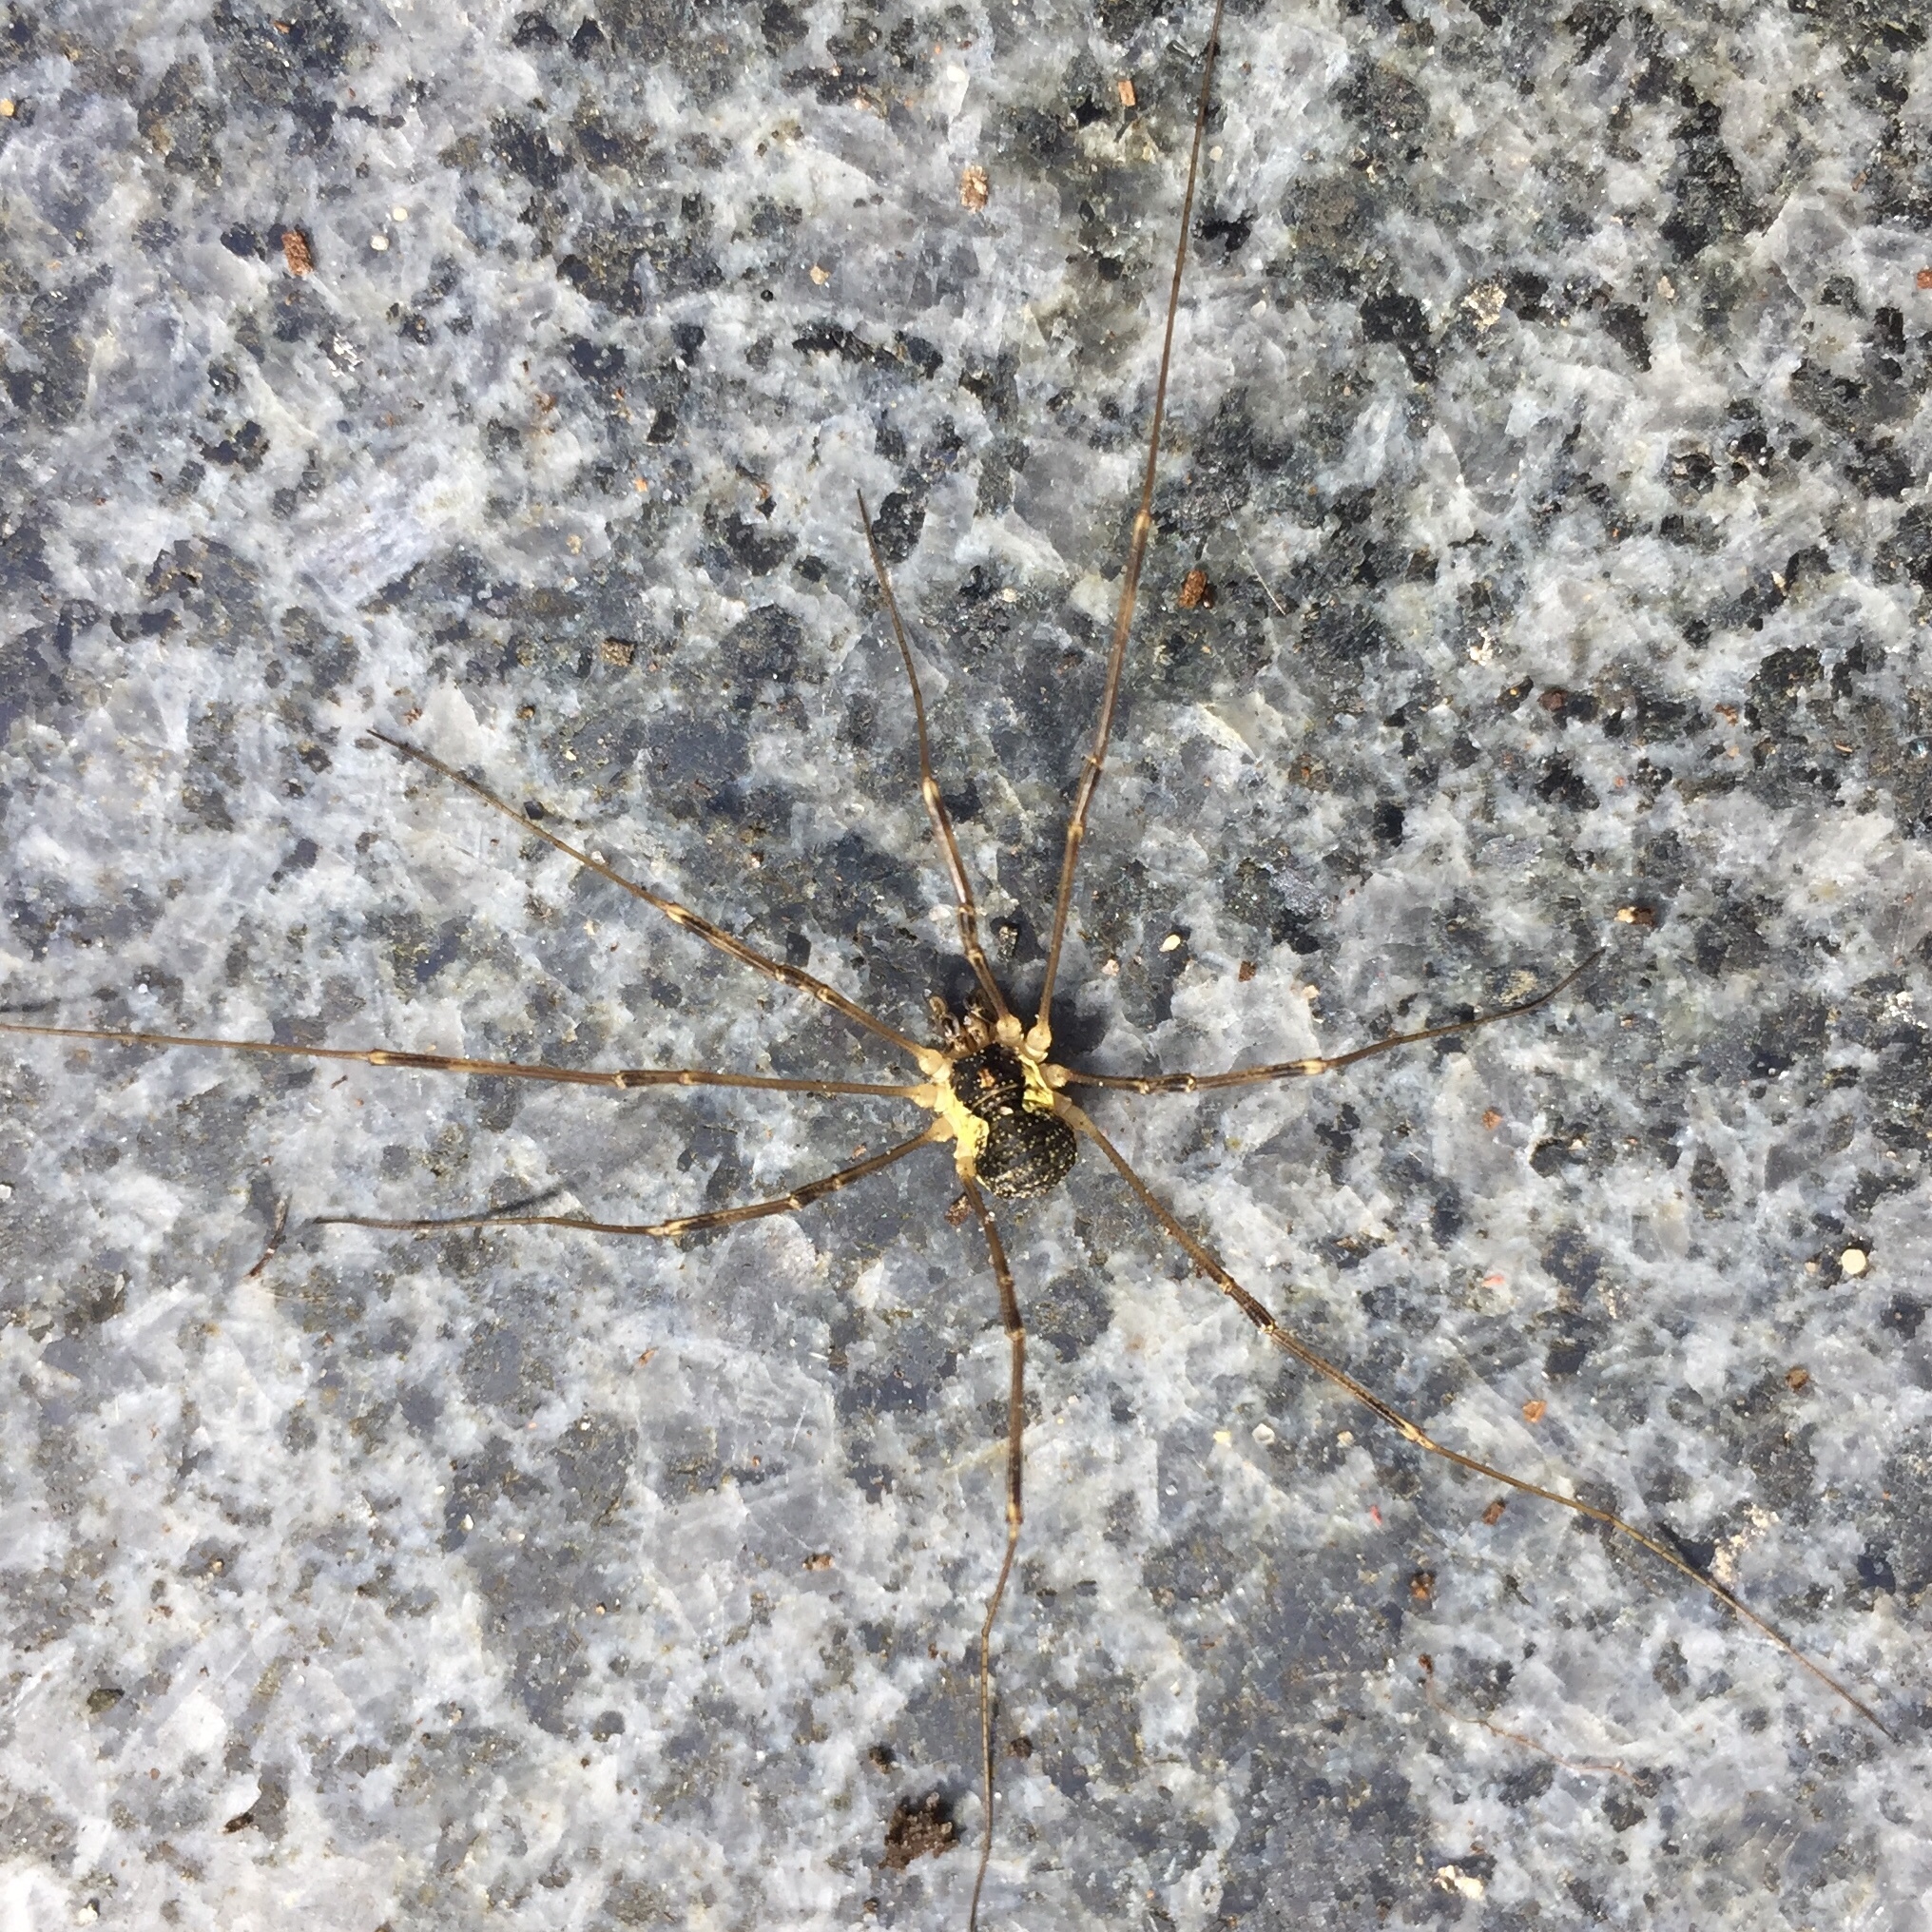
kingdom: Animalia
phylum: Arthropoda
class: Arachnida
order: Opiliones
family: Phalangiidae
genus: Mitopus
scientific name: Mitopus morio
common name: Saddleback harvestman
